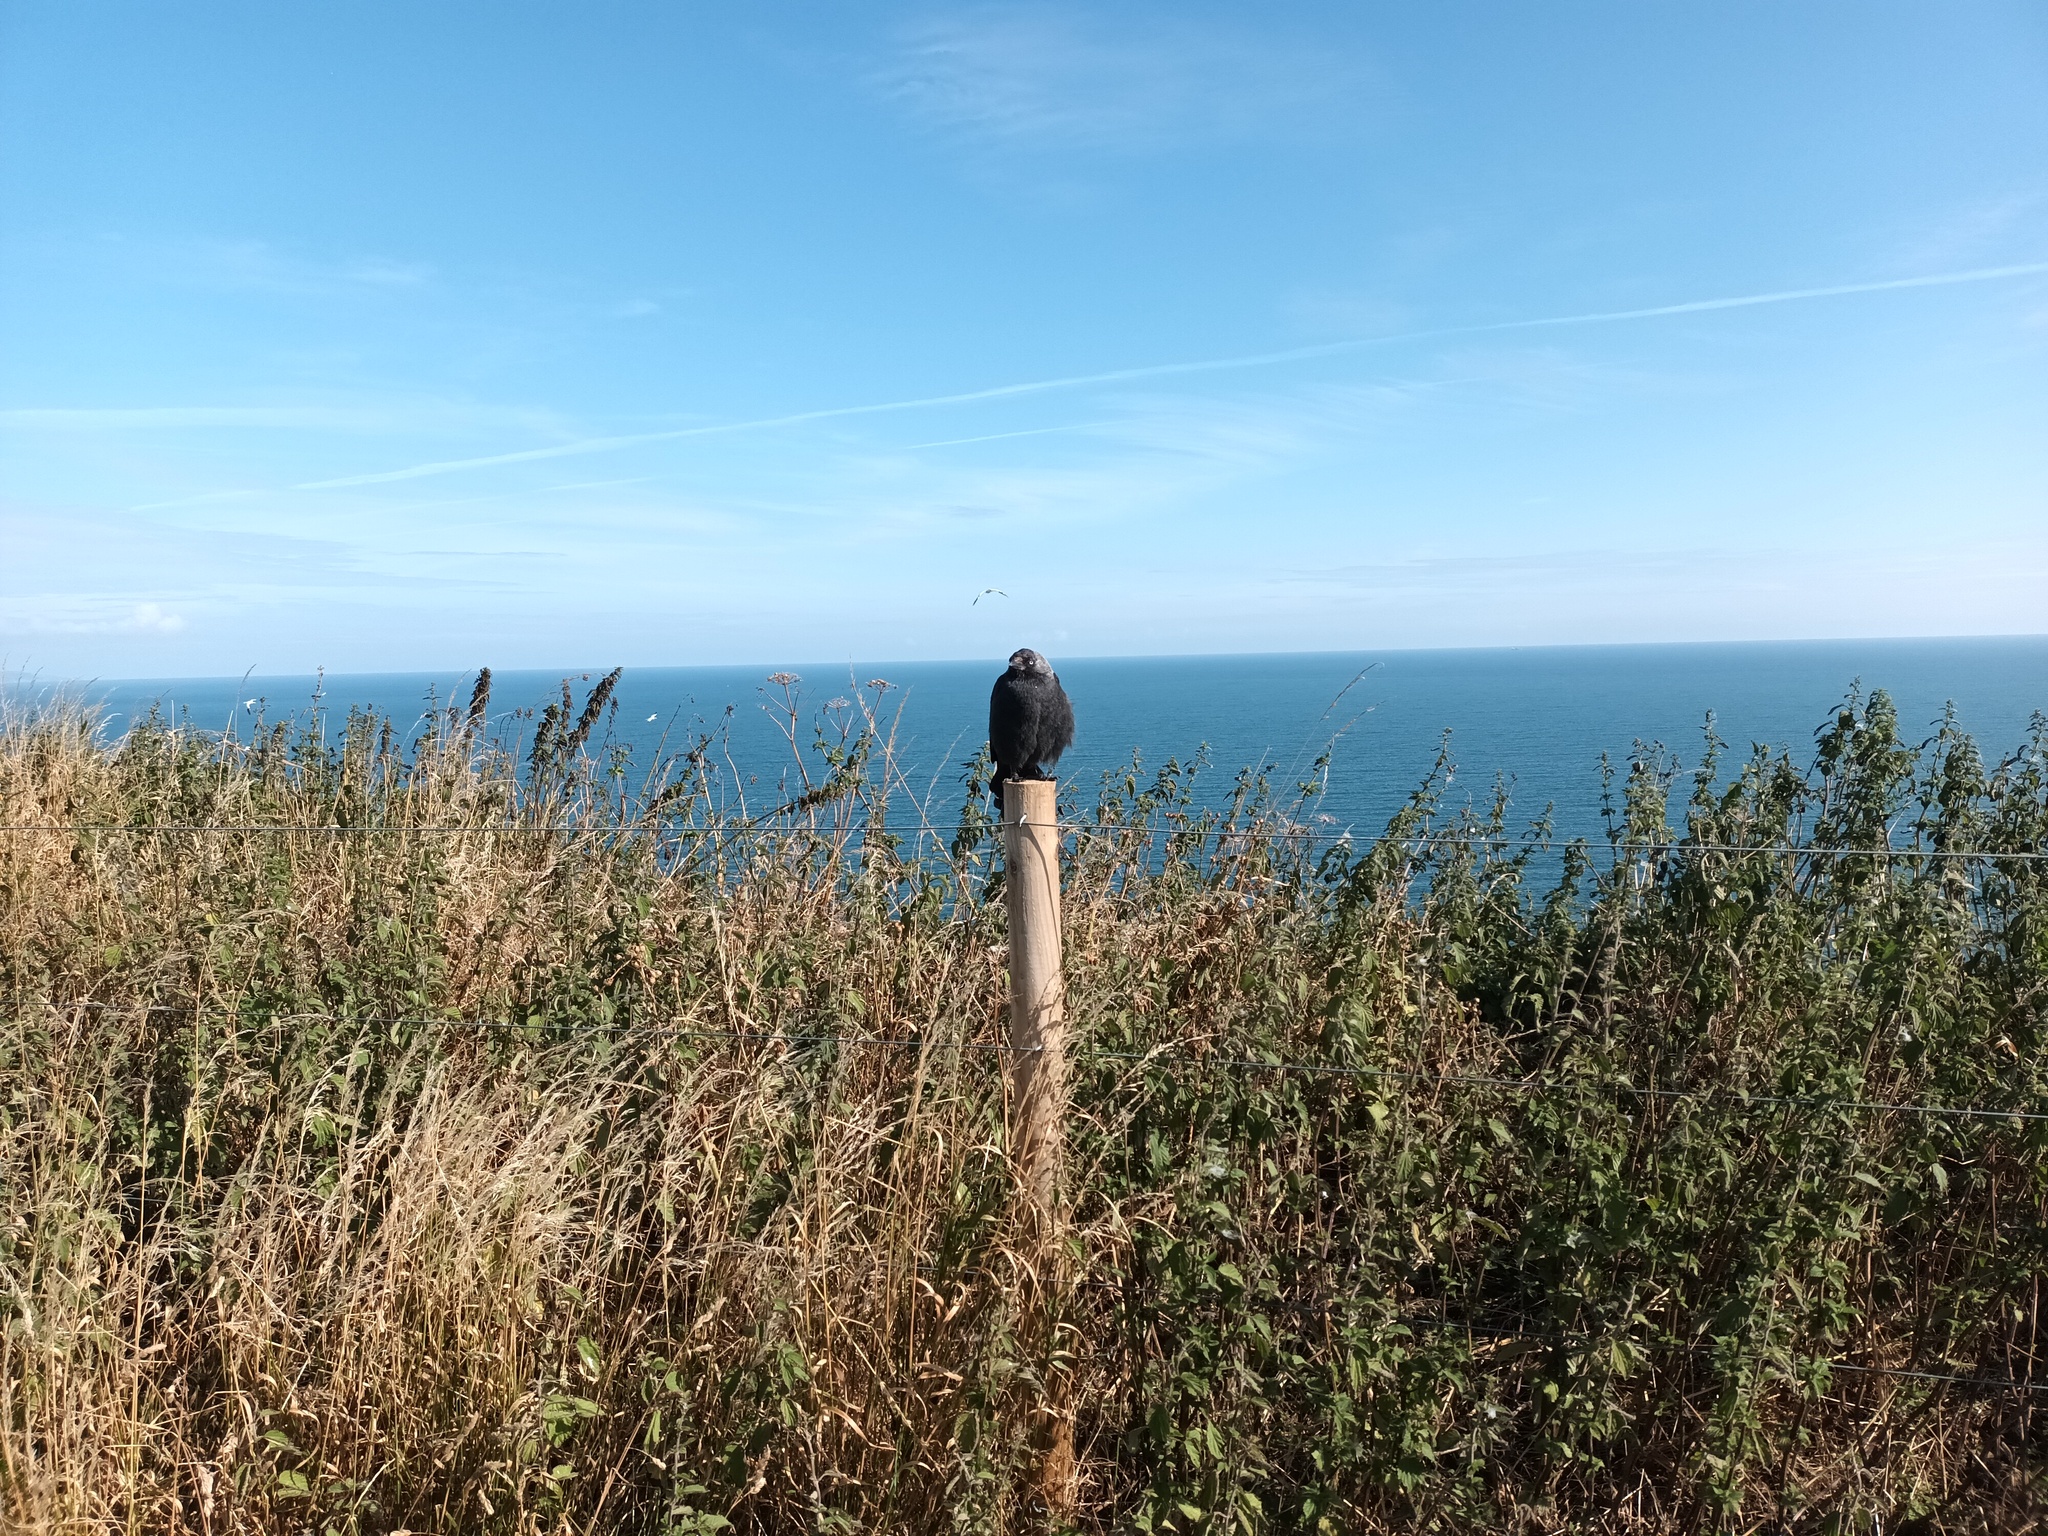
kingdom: Animalia
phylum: Chordata
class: Aves
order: Passeriformes
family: Corvidae
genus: Coloeus
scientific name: Coloeus monedula
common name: Western jackdaw
